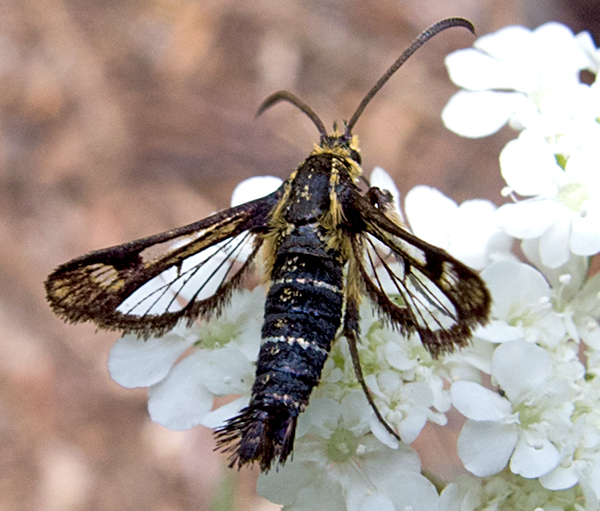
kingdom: Animalia
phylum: Arthropoda
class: Insecta
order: Lepidoptera
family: Sesiidae
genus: Pyropteron
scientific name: Pyropteron mannii
